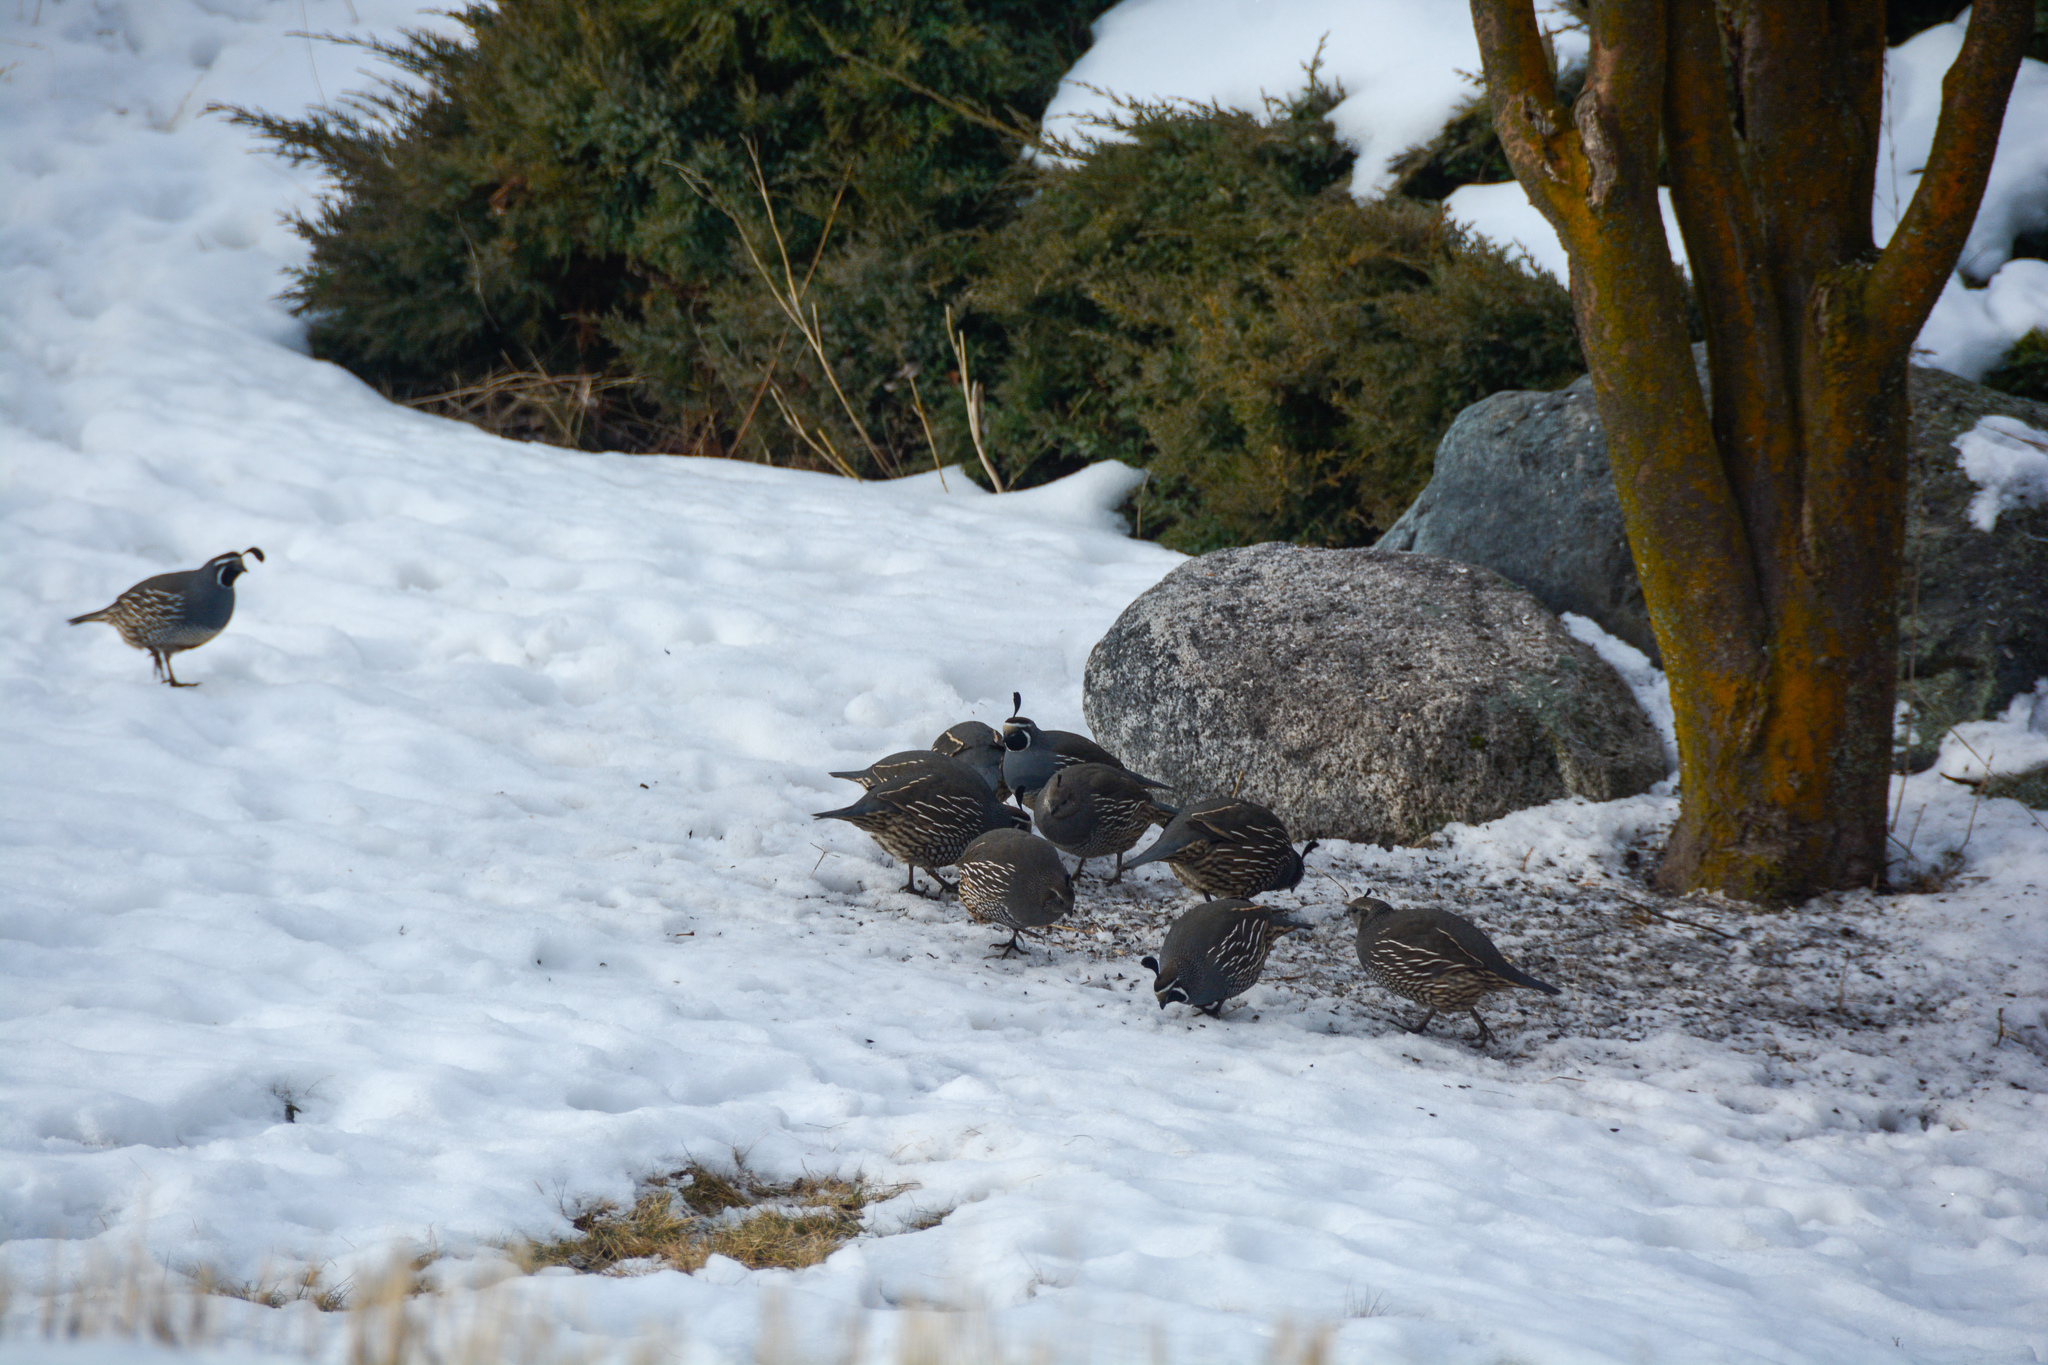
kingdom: Animalia
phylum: Chordata
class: Aves
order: Galliformes
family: Odontophoridae
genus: Callipepla
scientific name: Callipepla californica
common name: California quail
